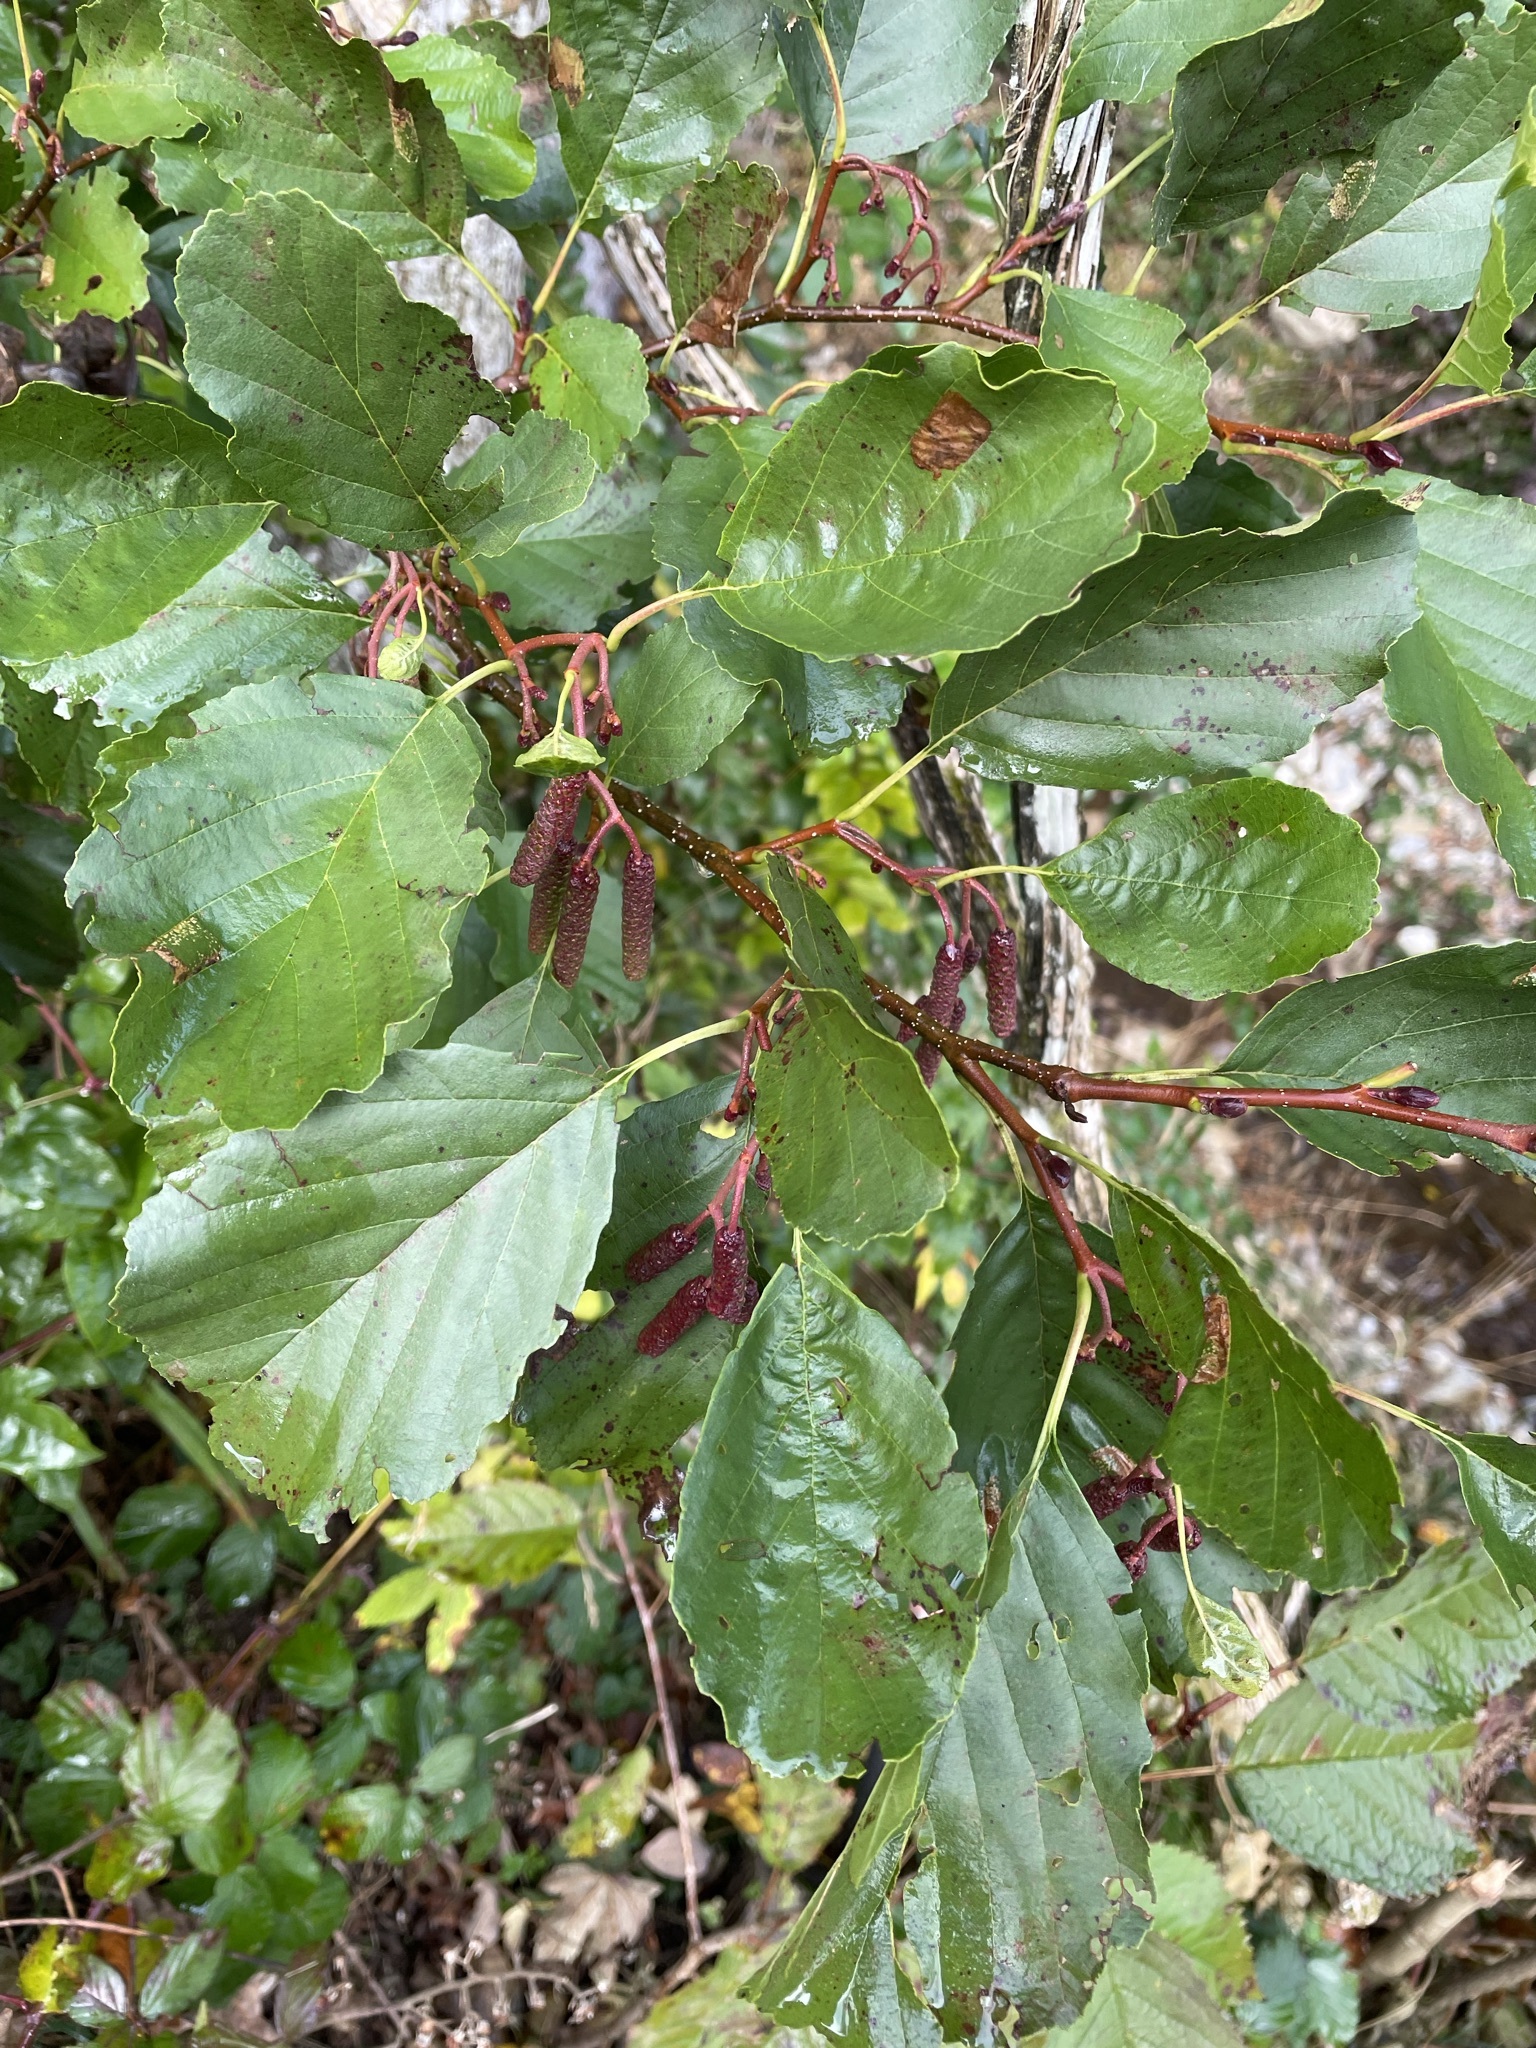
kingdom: Plantae
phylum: Tracheophyta
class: Magnoliopsida
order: Fagales
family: Betulaceae
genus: Alnus
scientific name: Alnus glutinosa
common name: Black alder
